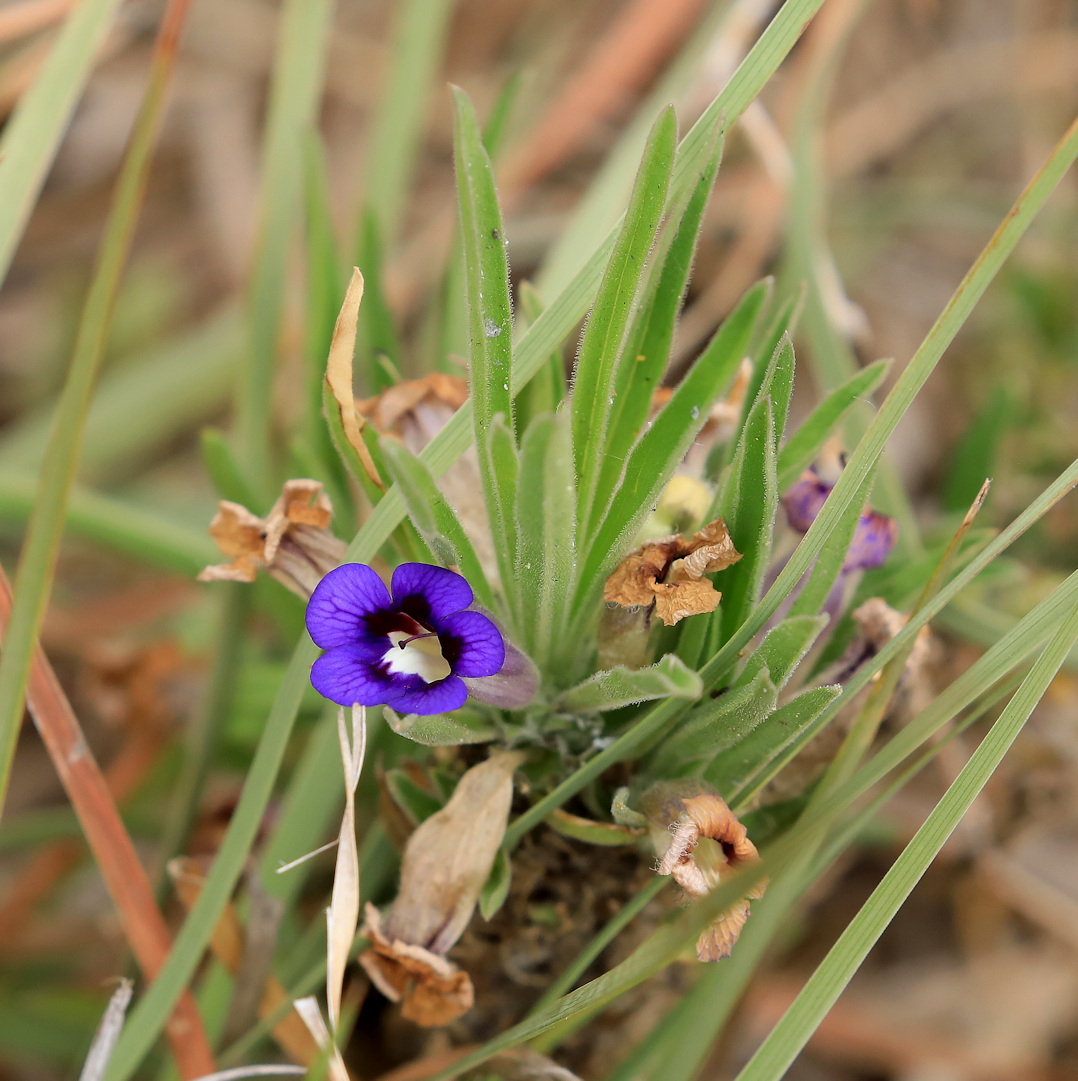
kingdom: Plantae
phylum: Tracheophyta
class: Magnoliopsida
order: Lamiales
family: Scrophulariaceae
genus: Aptosimum
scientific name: Aptosimum lineare
